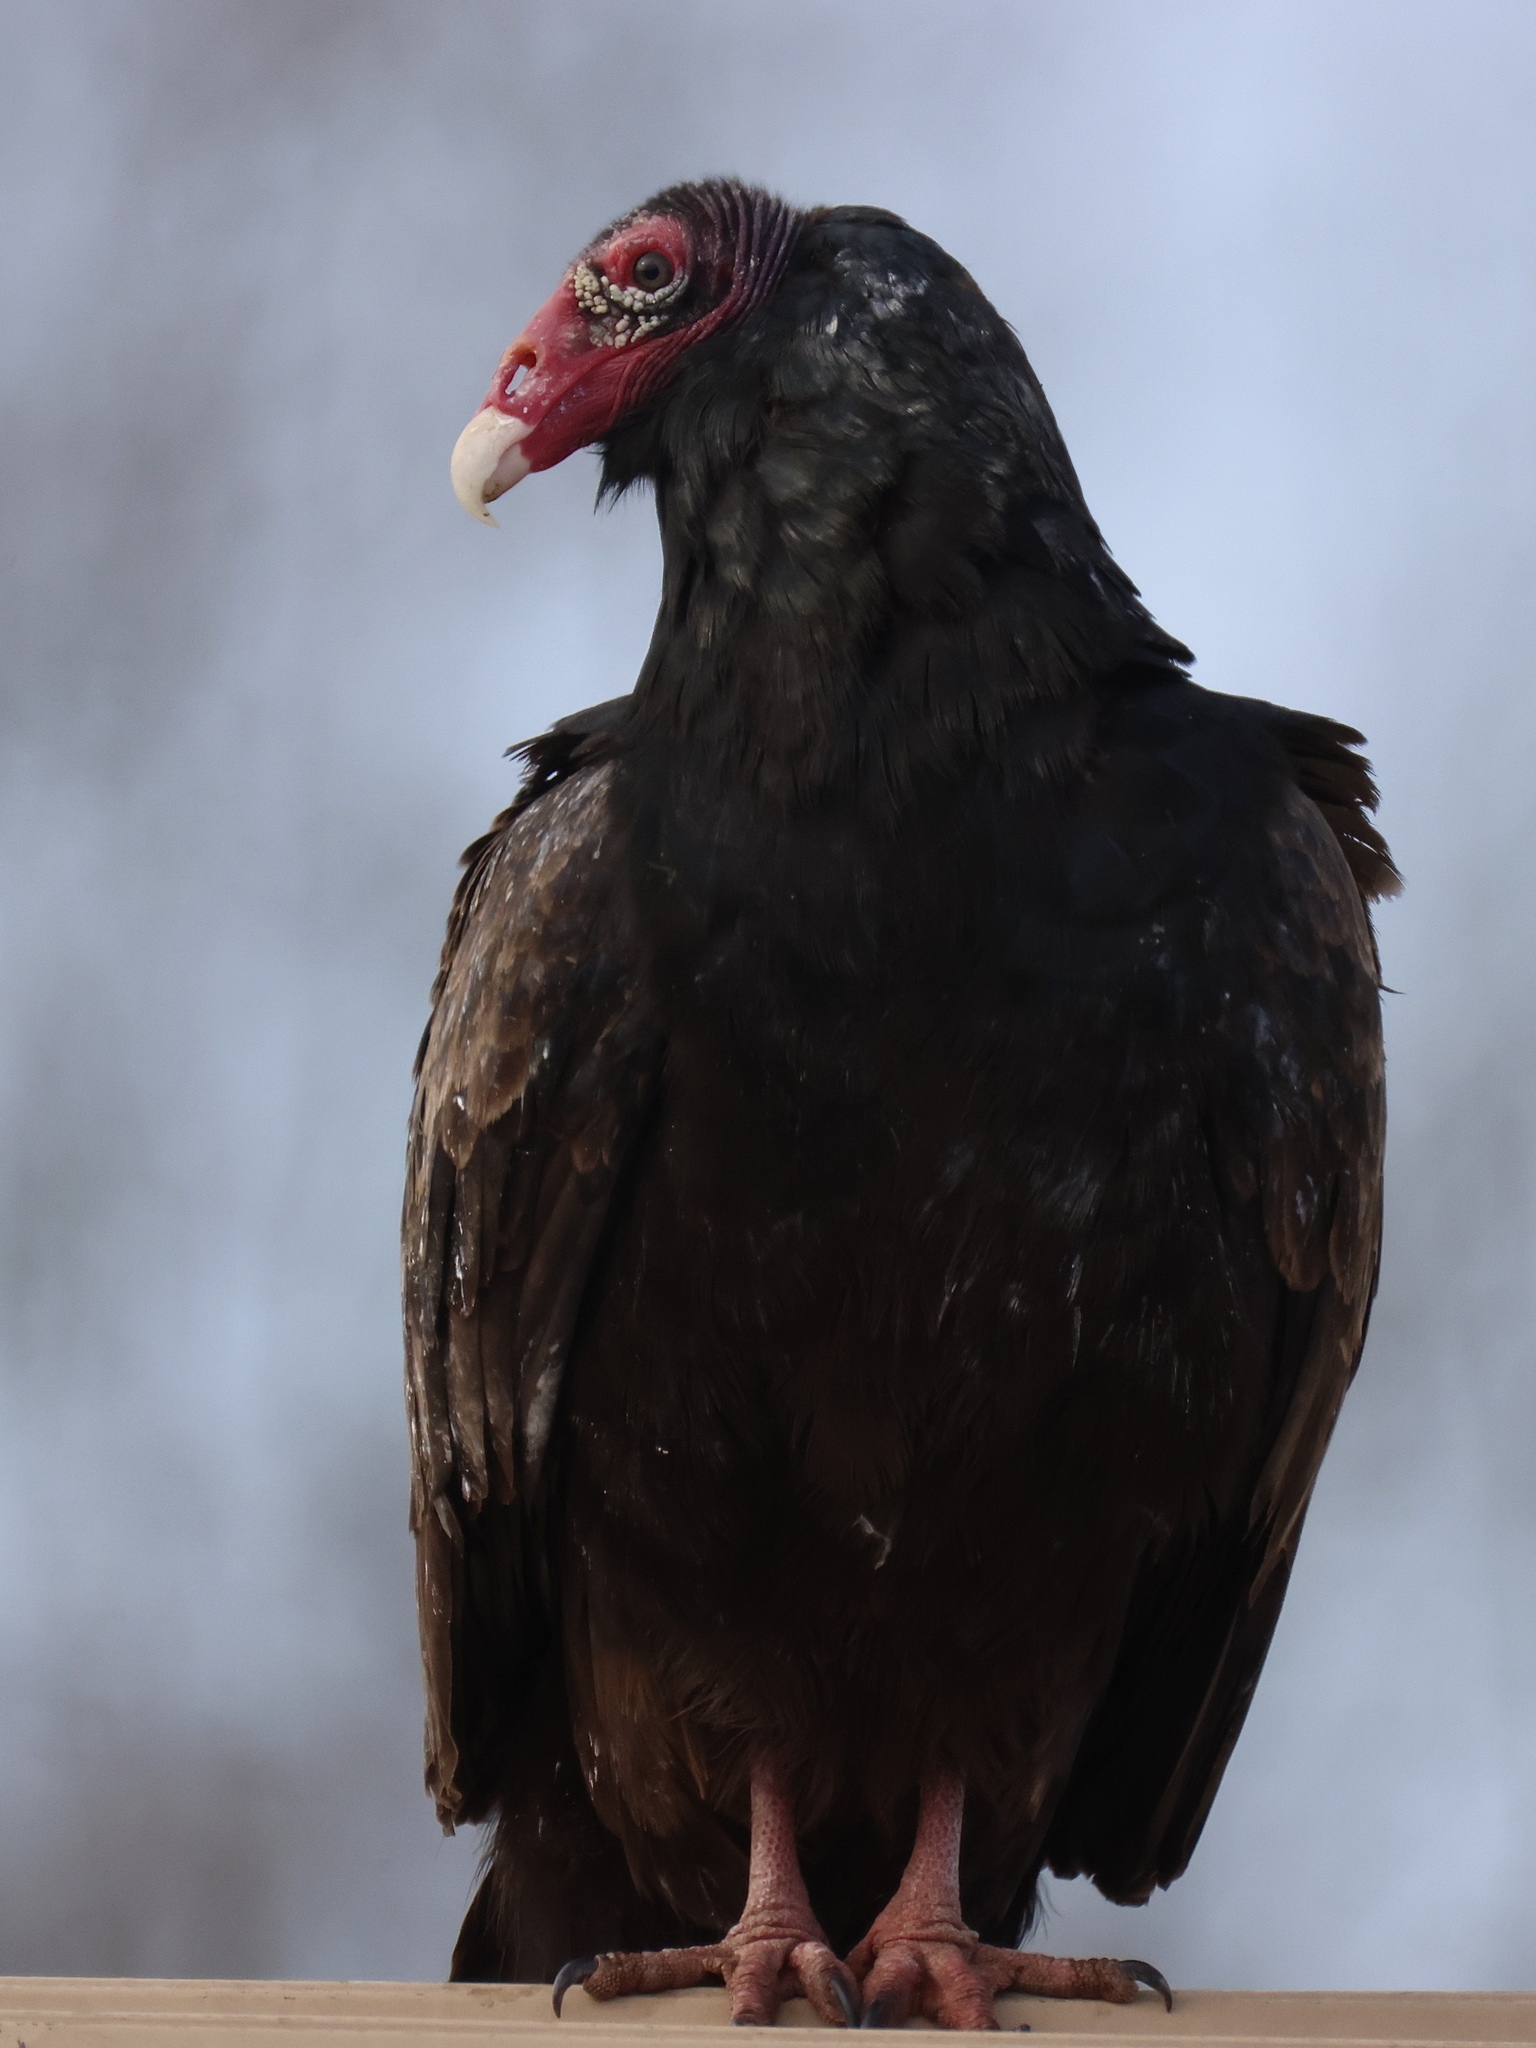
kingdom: Animalia
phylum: Chordata
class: Aves
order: Accipitriformes
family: Cathartidae
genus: Cathartes
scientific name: Cathartes aura
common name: Turkey vulture
